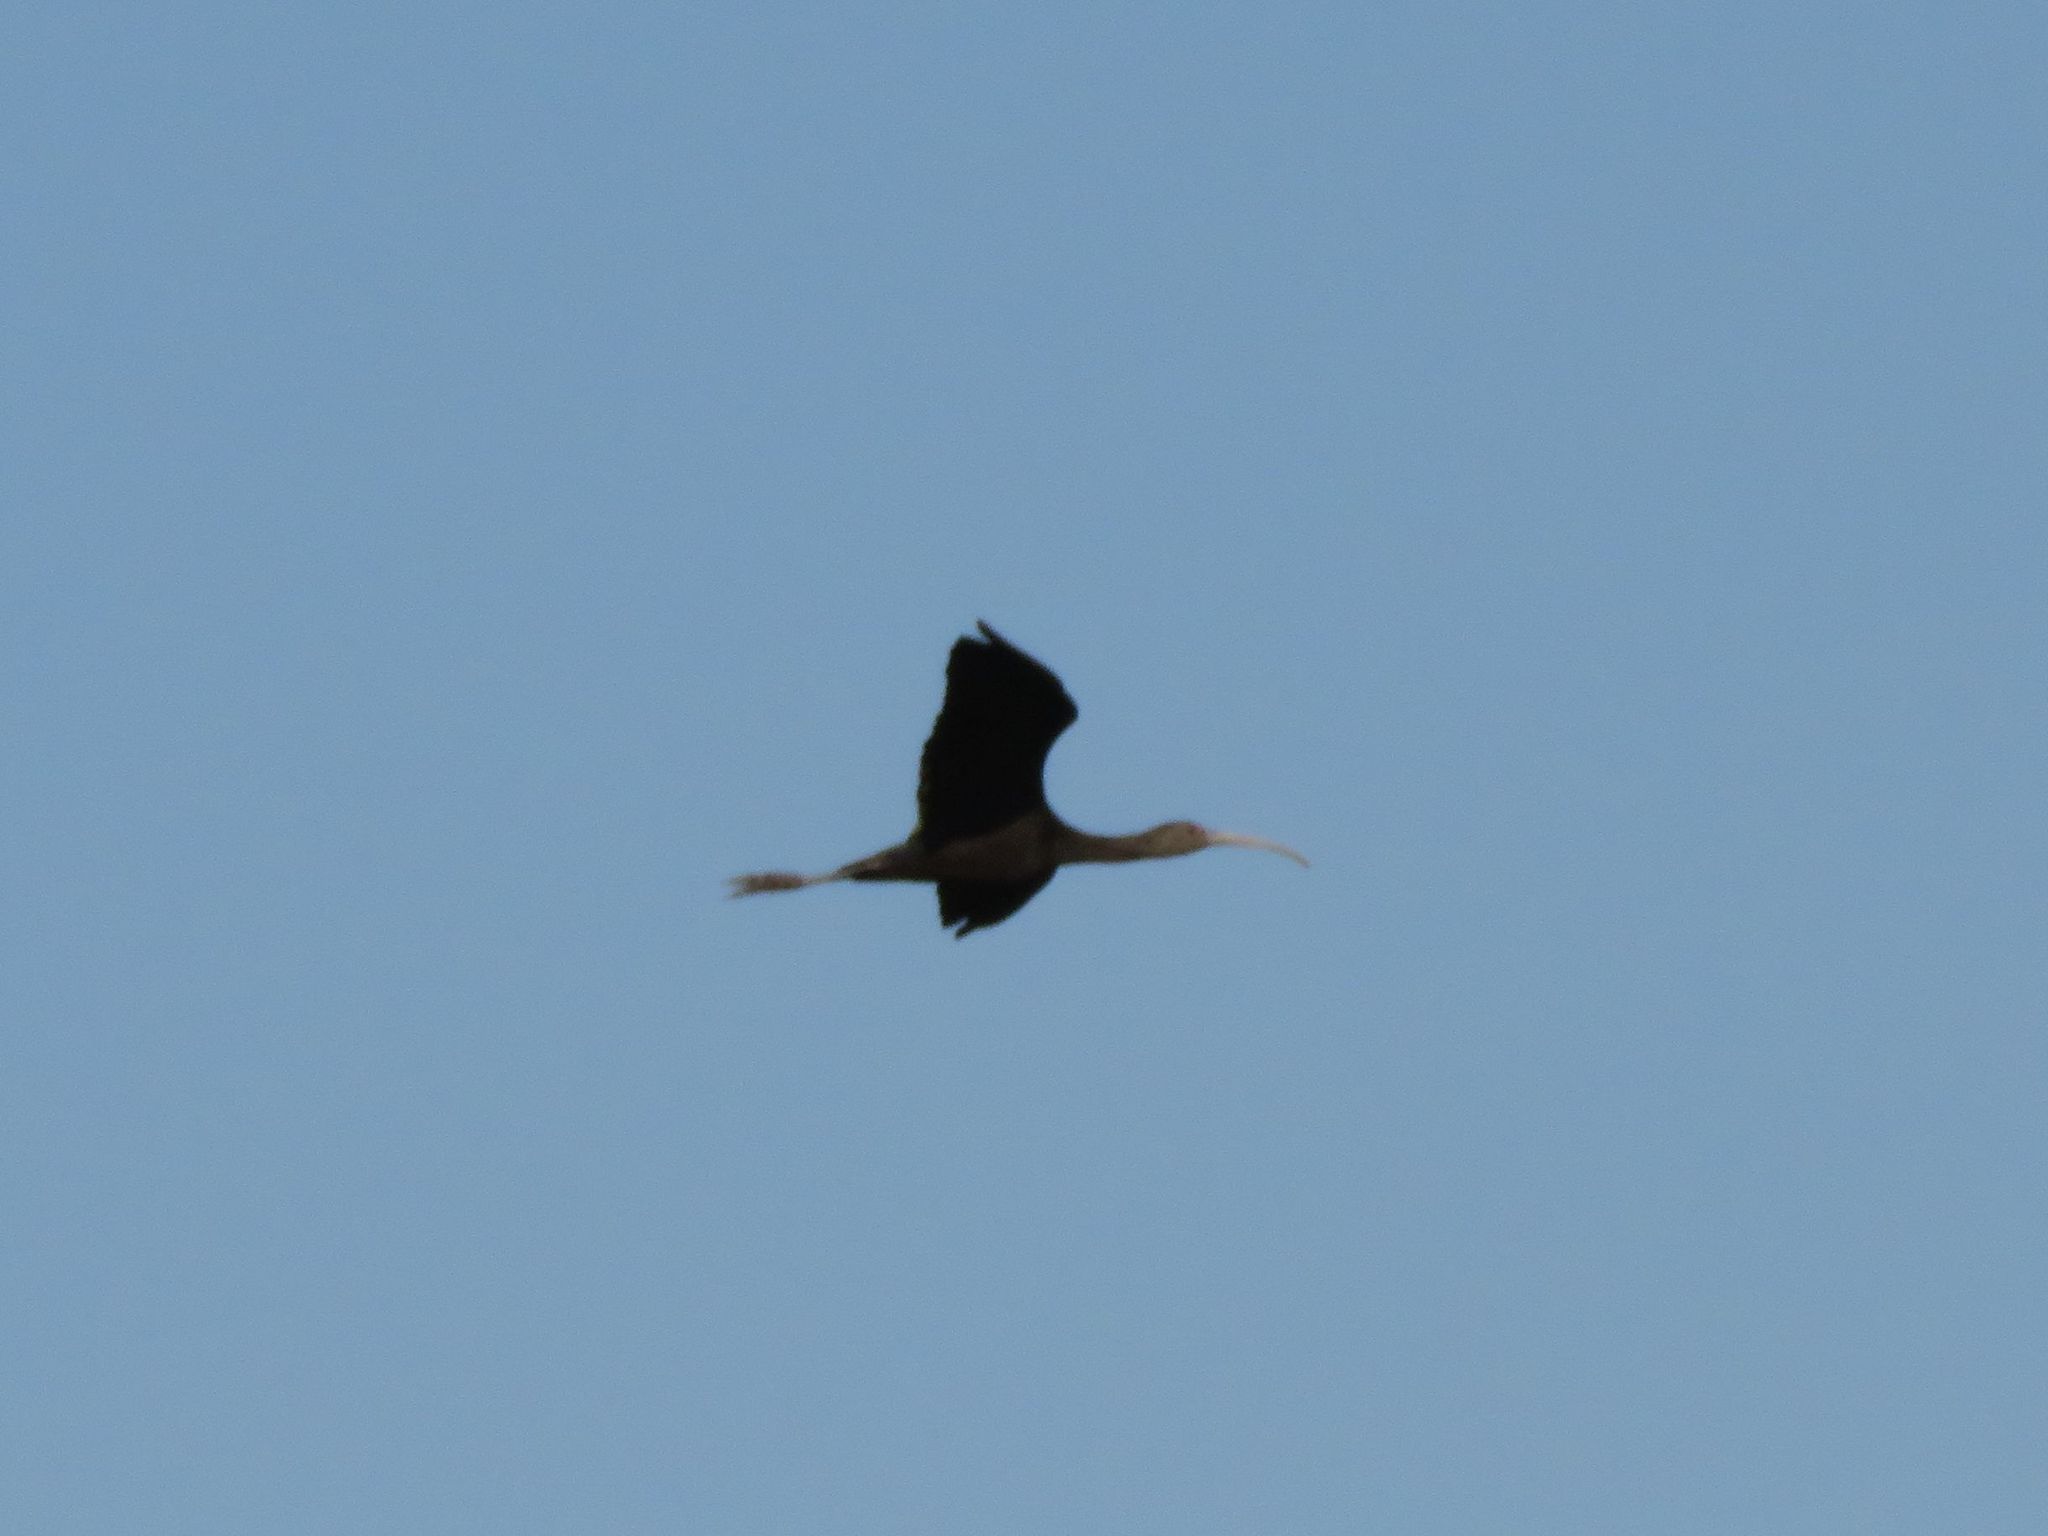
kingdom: Animalia
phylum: Chordata
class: Aves
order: Pelecaniformes
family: Threskiornithidae
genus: Plegadis
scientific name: Plegadis chihi
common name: White-faced ibis
